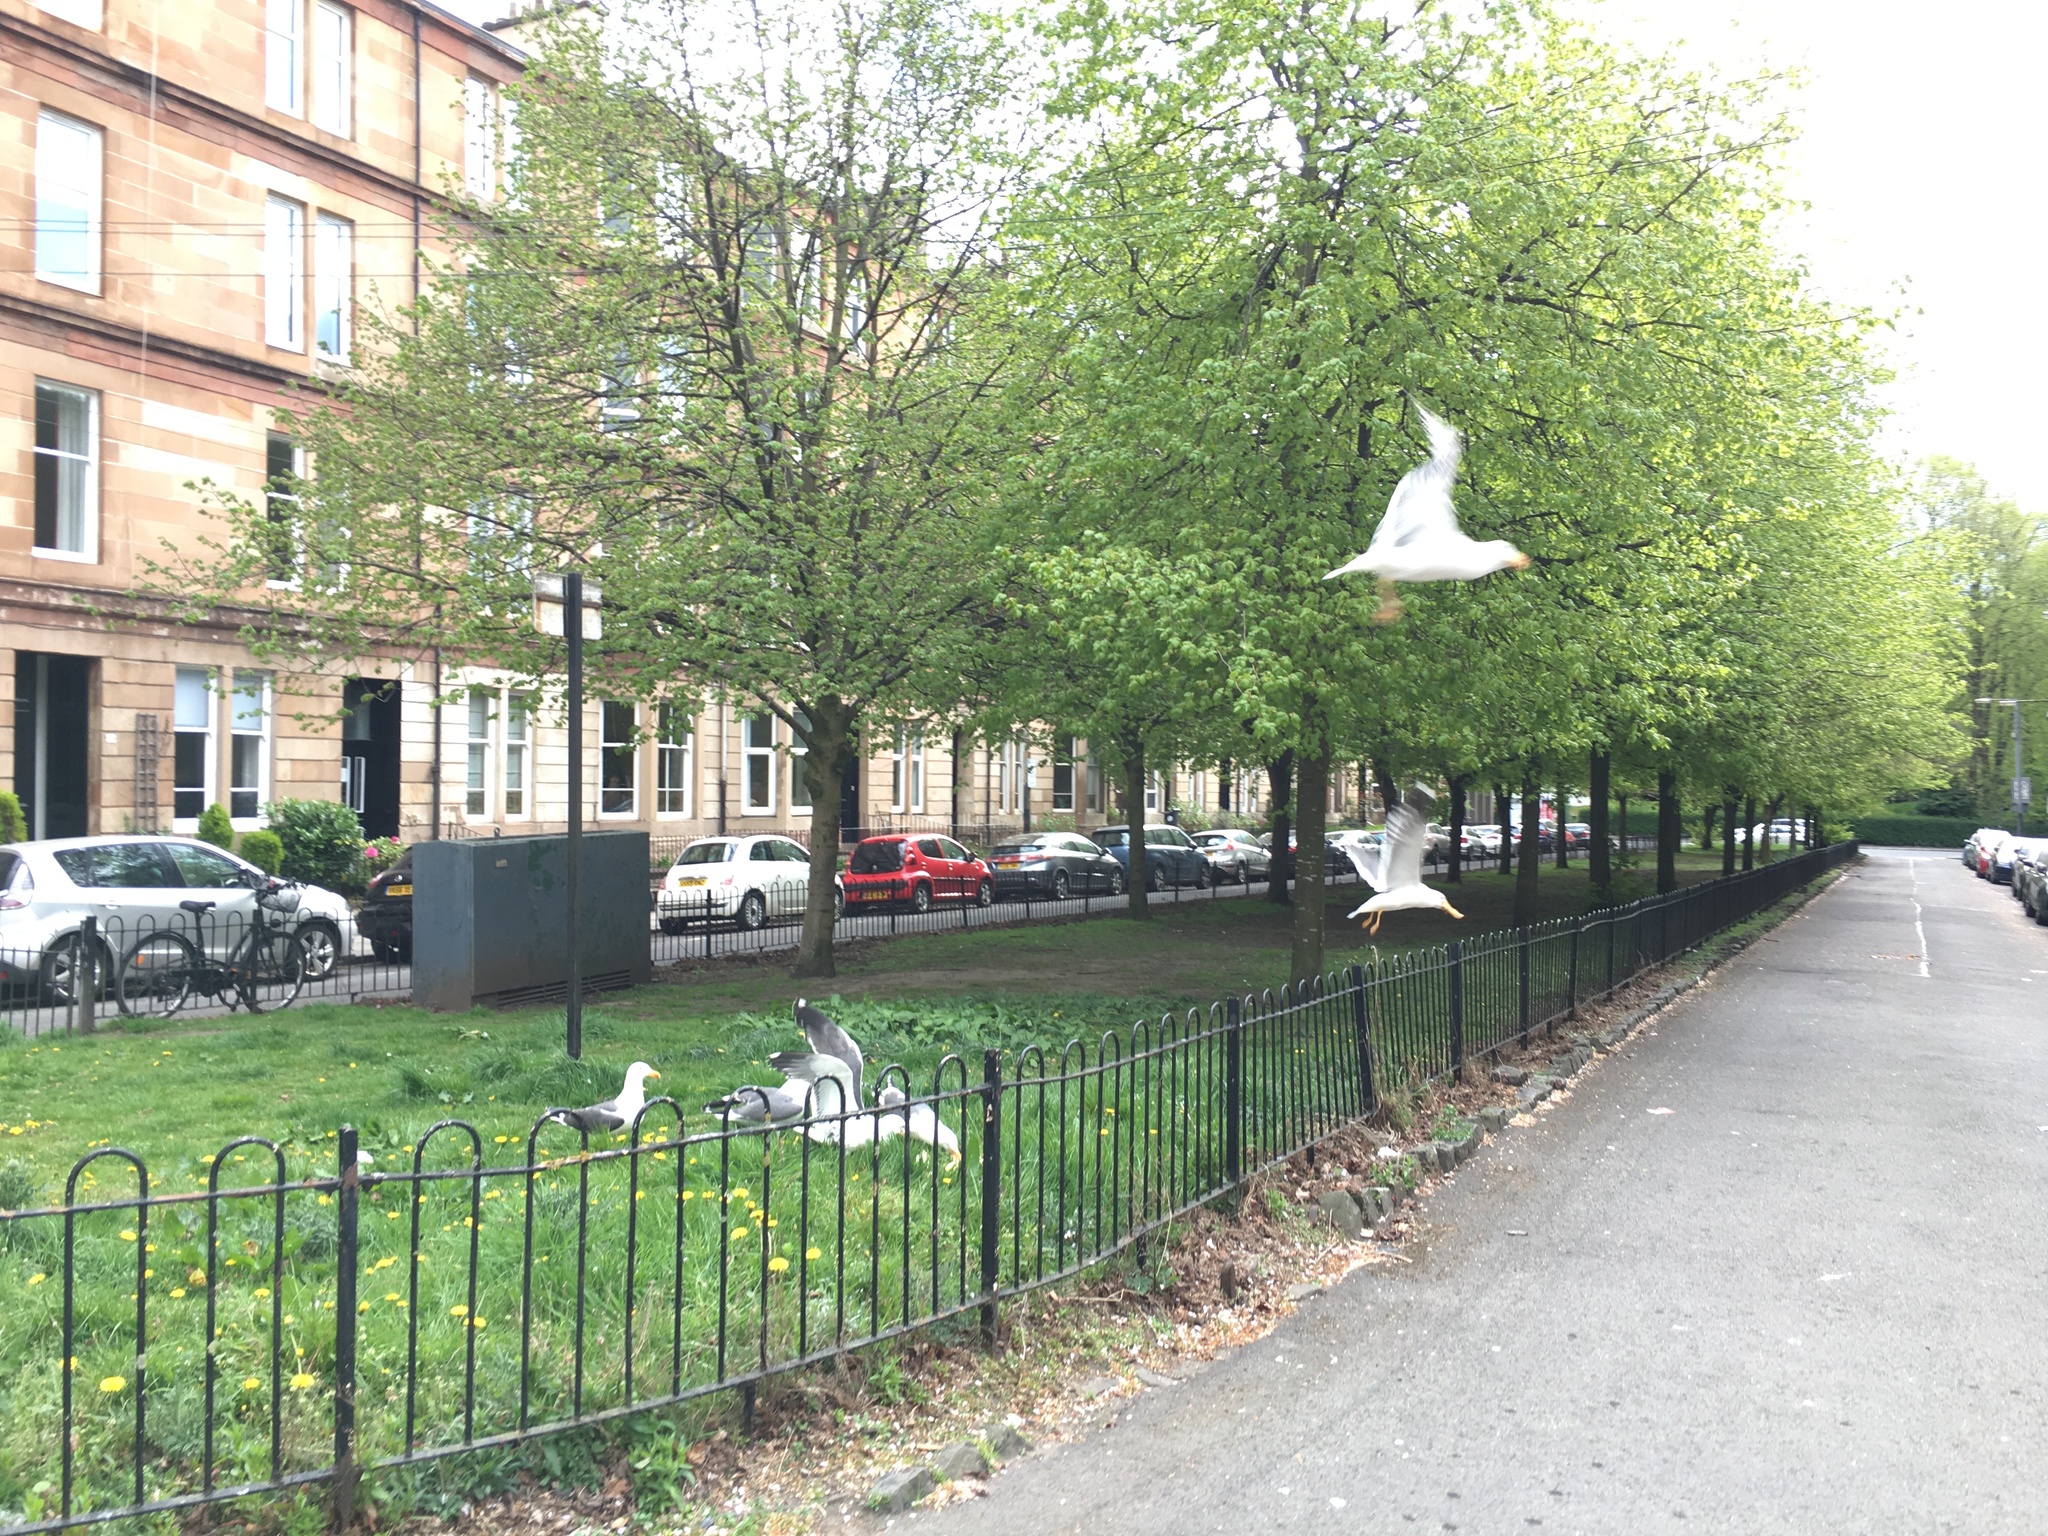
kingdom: Animalia
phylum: Chordata
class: Aves
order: Charadriiformes
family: Laridae
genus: Larus
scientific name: Larus fuscus
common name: Lesser black-backed gull
